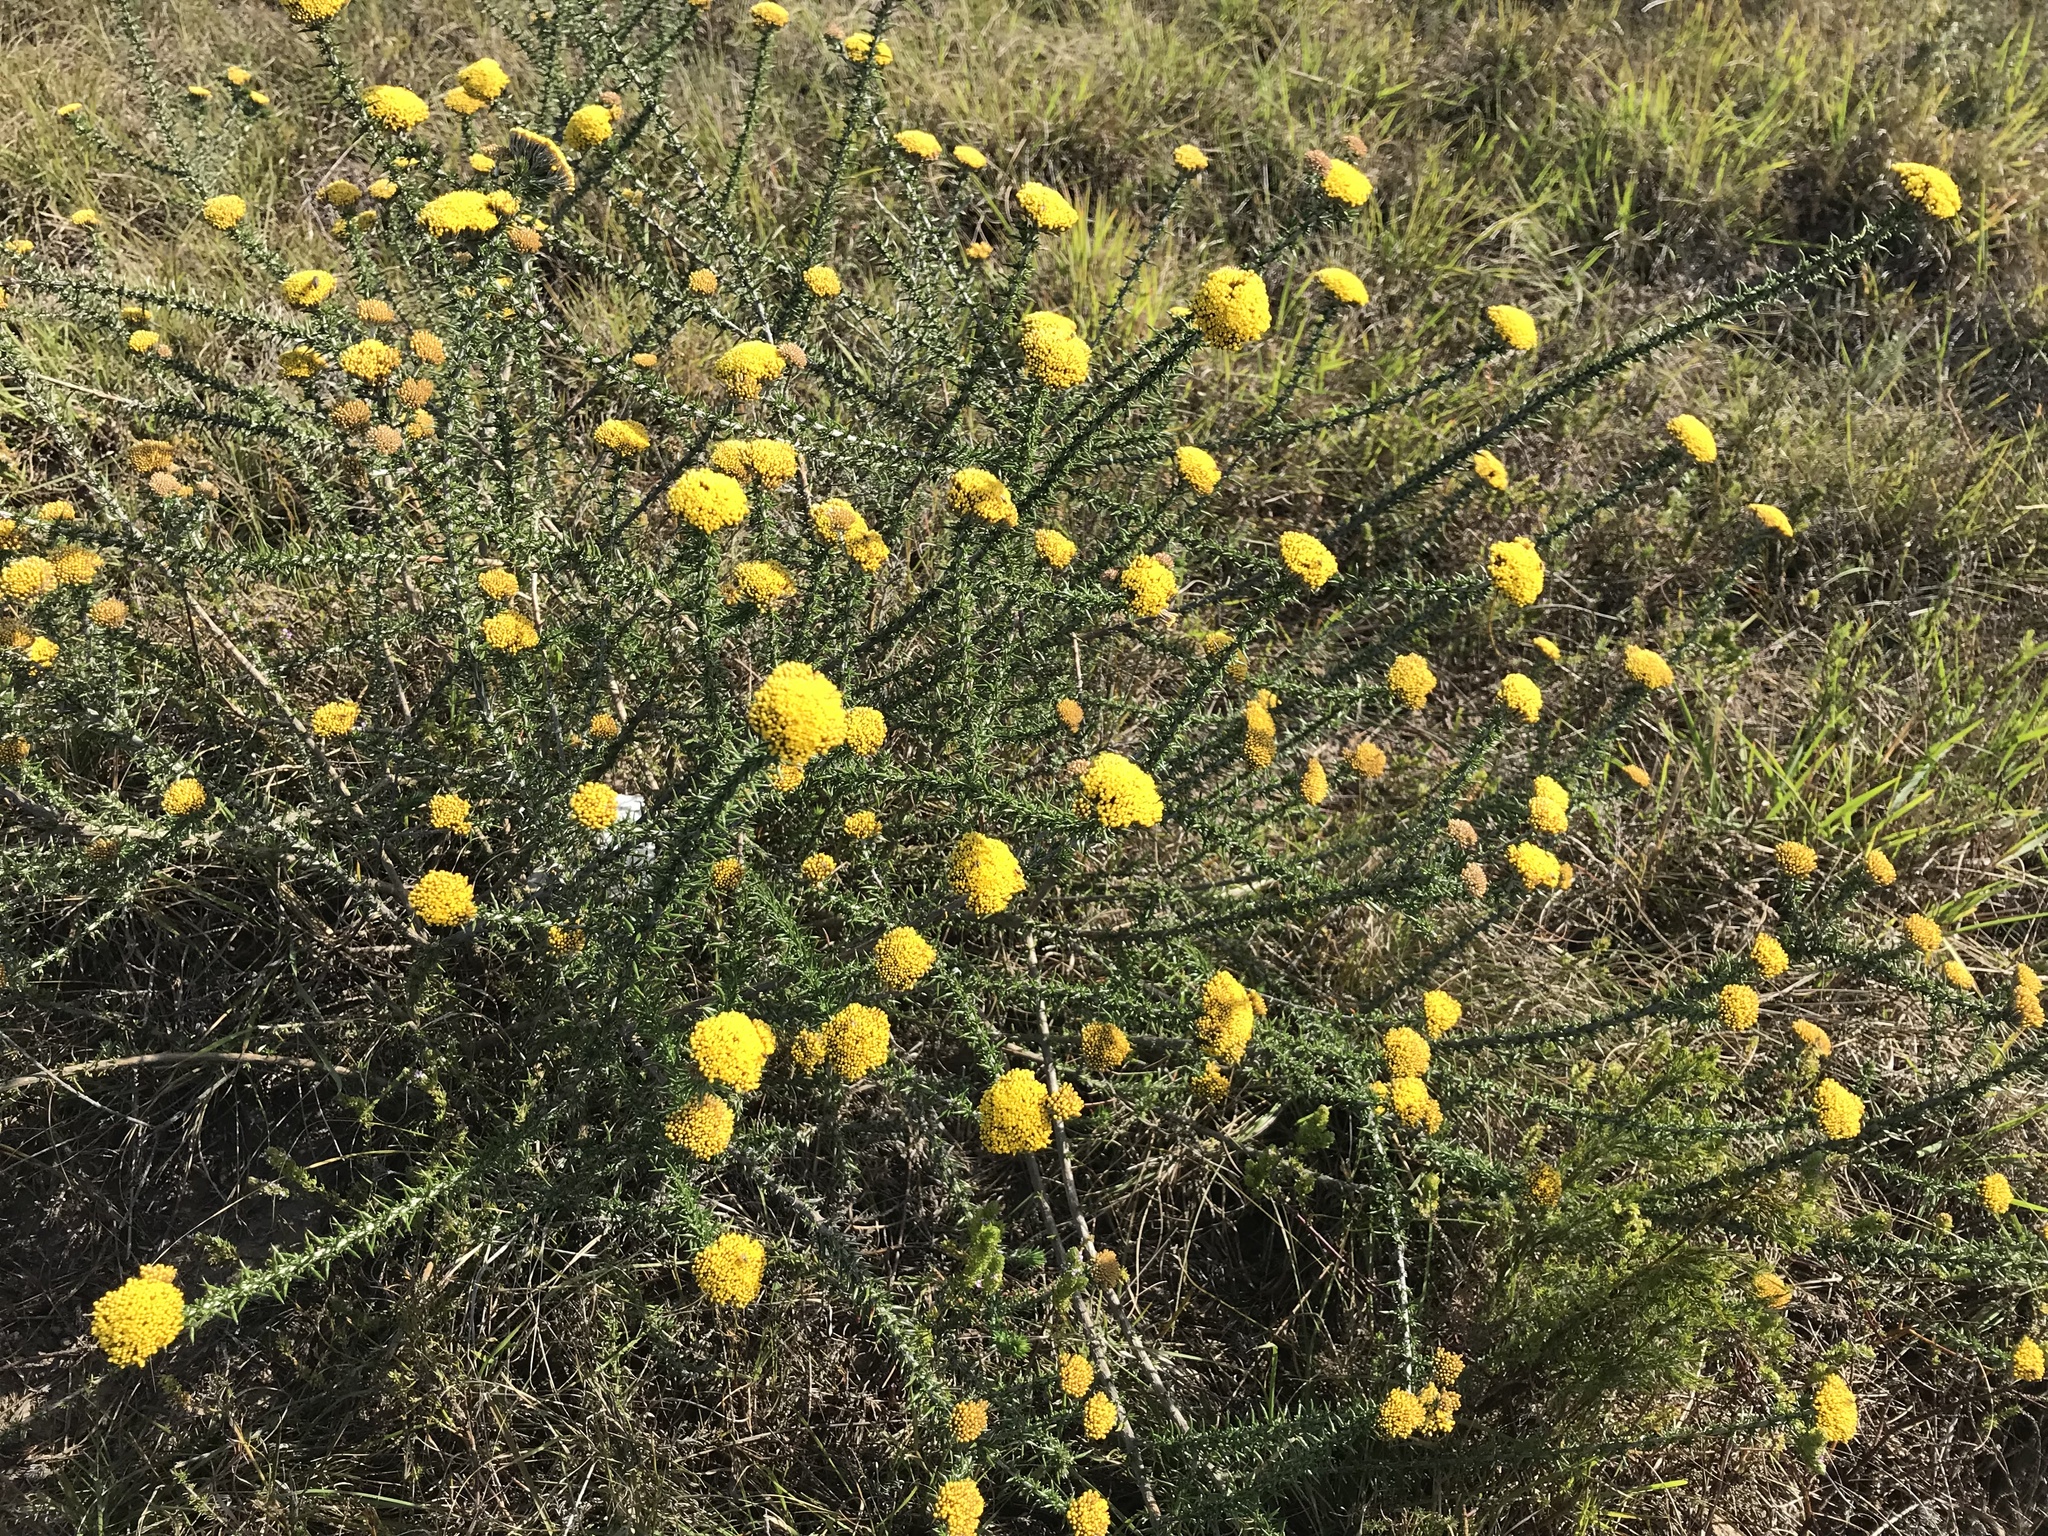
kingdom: Plantae
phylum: Tracheophyta
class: Magnoliopsida
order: Asterales
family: Asteraceae
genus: Metalasia
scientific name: Metalasia aurea
